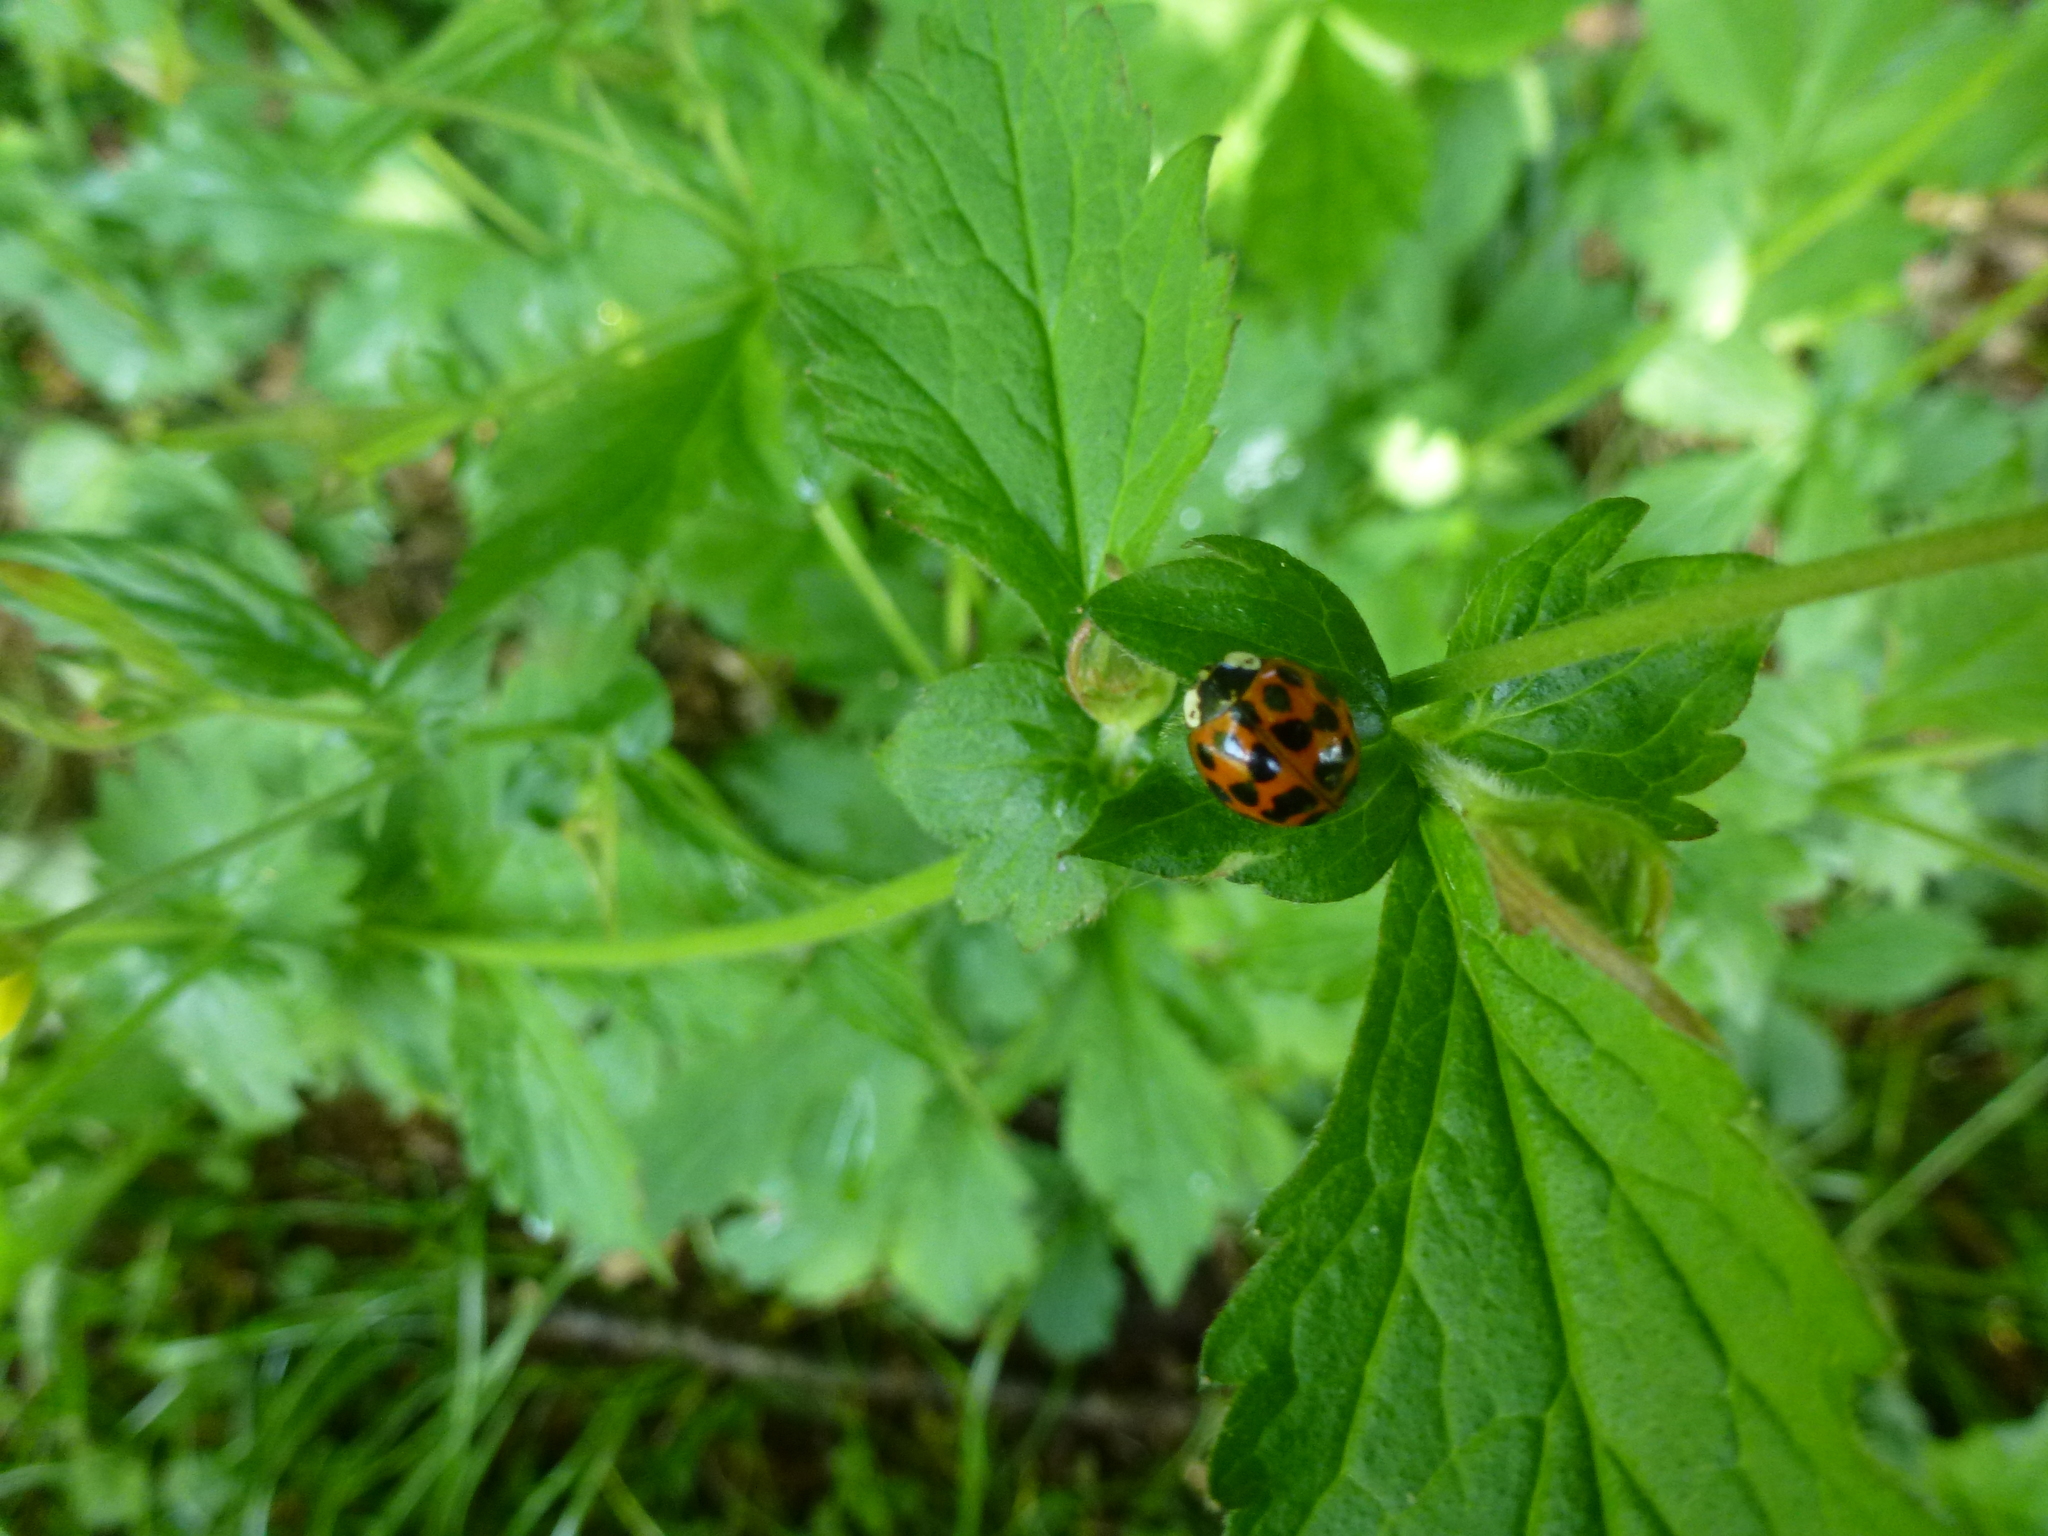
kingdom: Animalia
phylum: Arthropoda
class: Insecta
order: Coleoptera
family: Coccinellidae
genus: Harmonia
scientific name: Harmonia axyridis
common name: Harlequin ladybird
